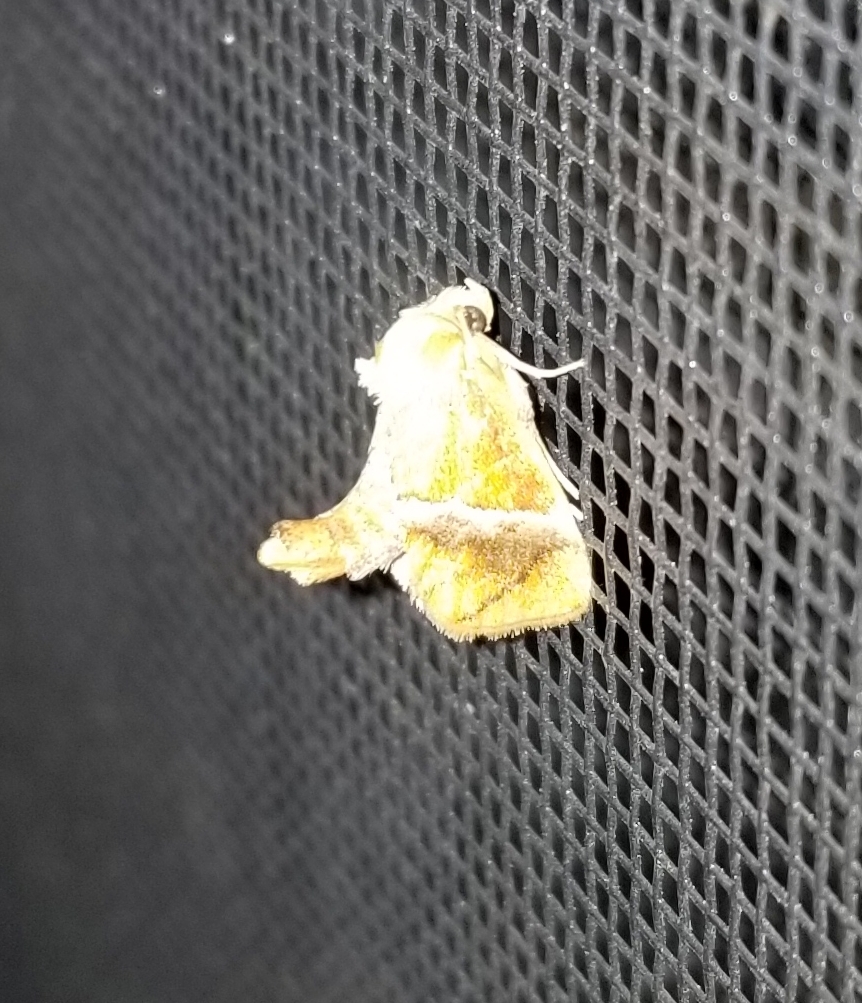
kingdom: Animalia
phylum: Arthropoda
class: Insecta
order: Lepidoptera
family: Limacodidae
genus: Lithacodes
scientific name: Lithacodes fasciola
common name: Yellow-shouldered slug moth
